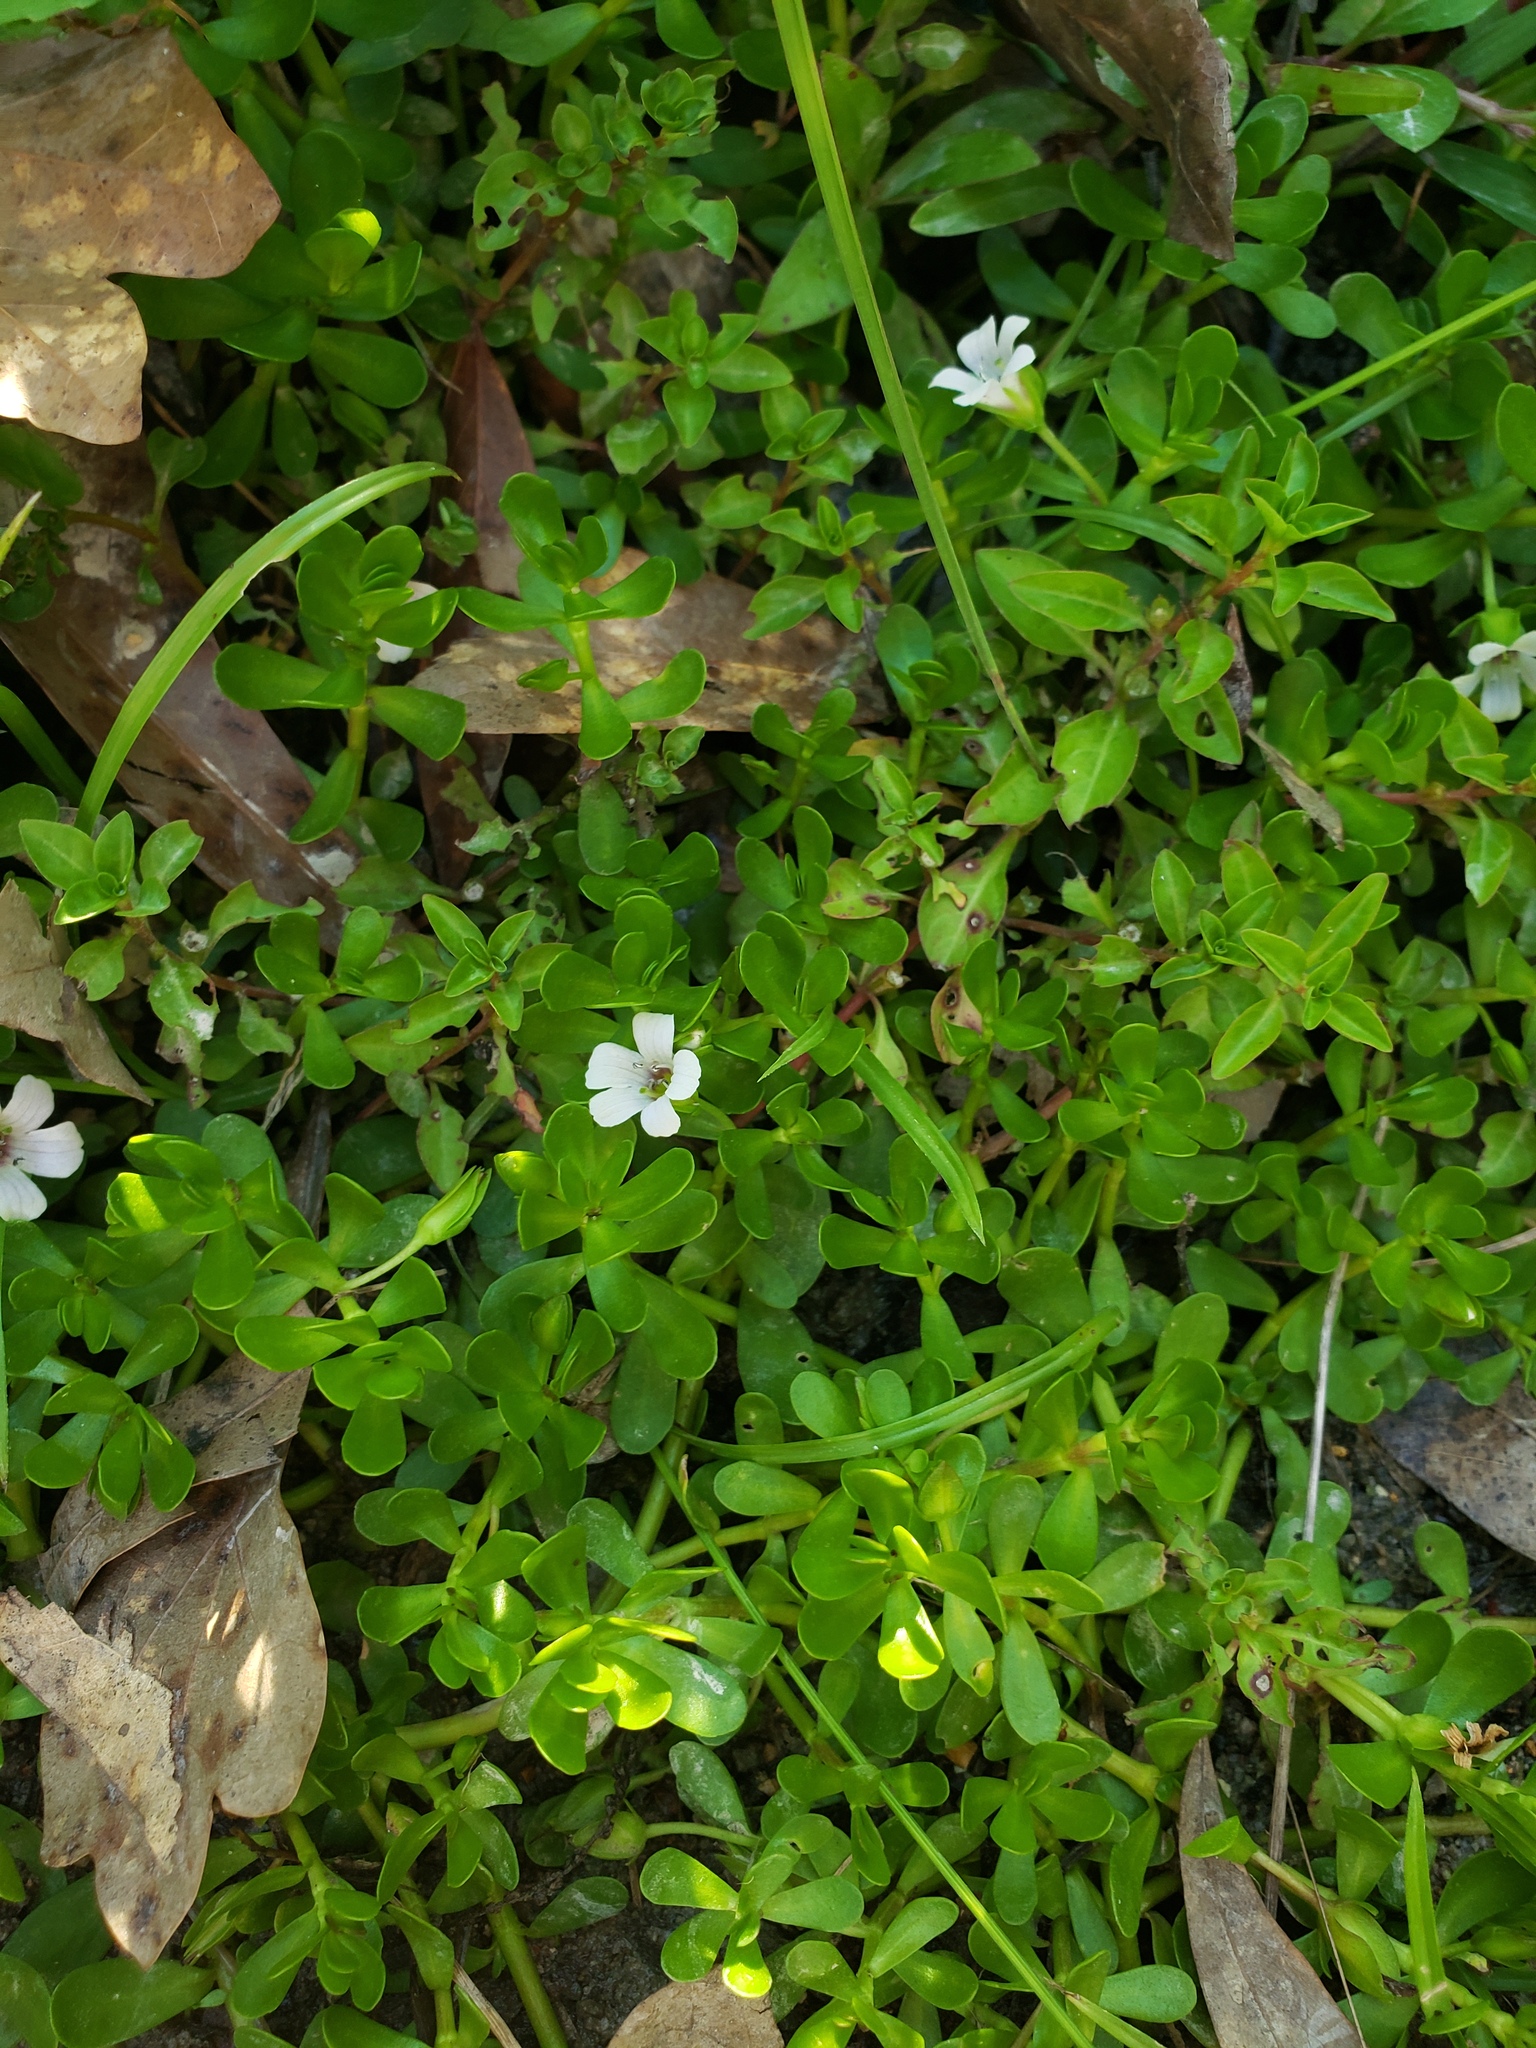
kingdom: Plantae
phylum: Tracheophyta
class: Magnoliopsida
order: Lamiales
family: Plantaginaceae
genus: Bacopa
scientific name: Bacopa monnieri
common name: Indian-pennywort
